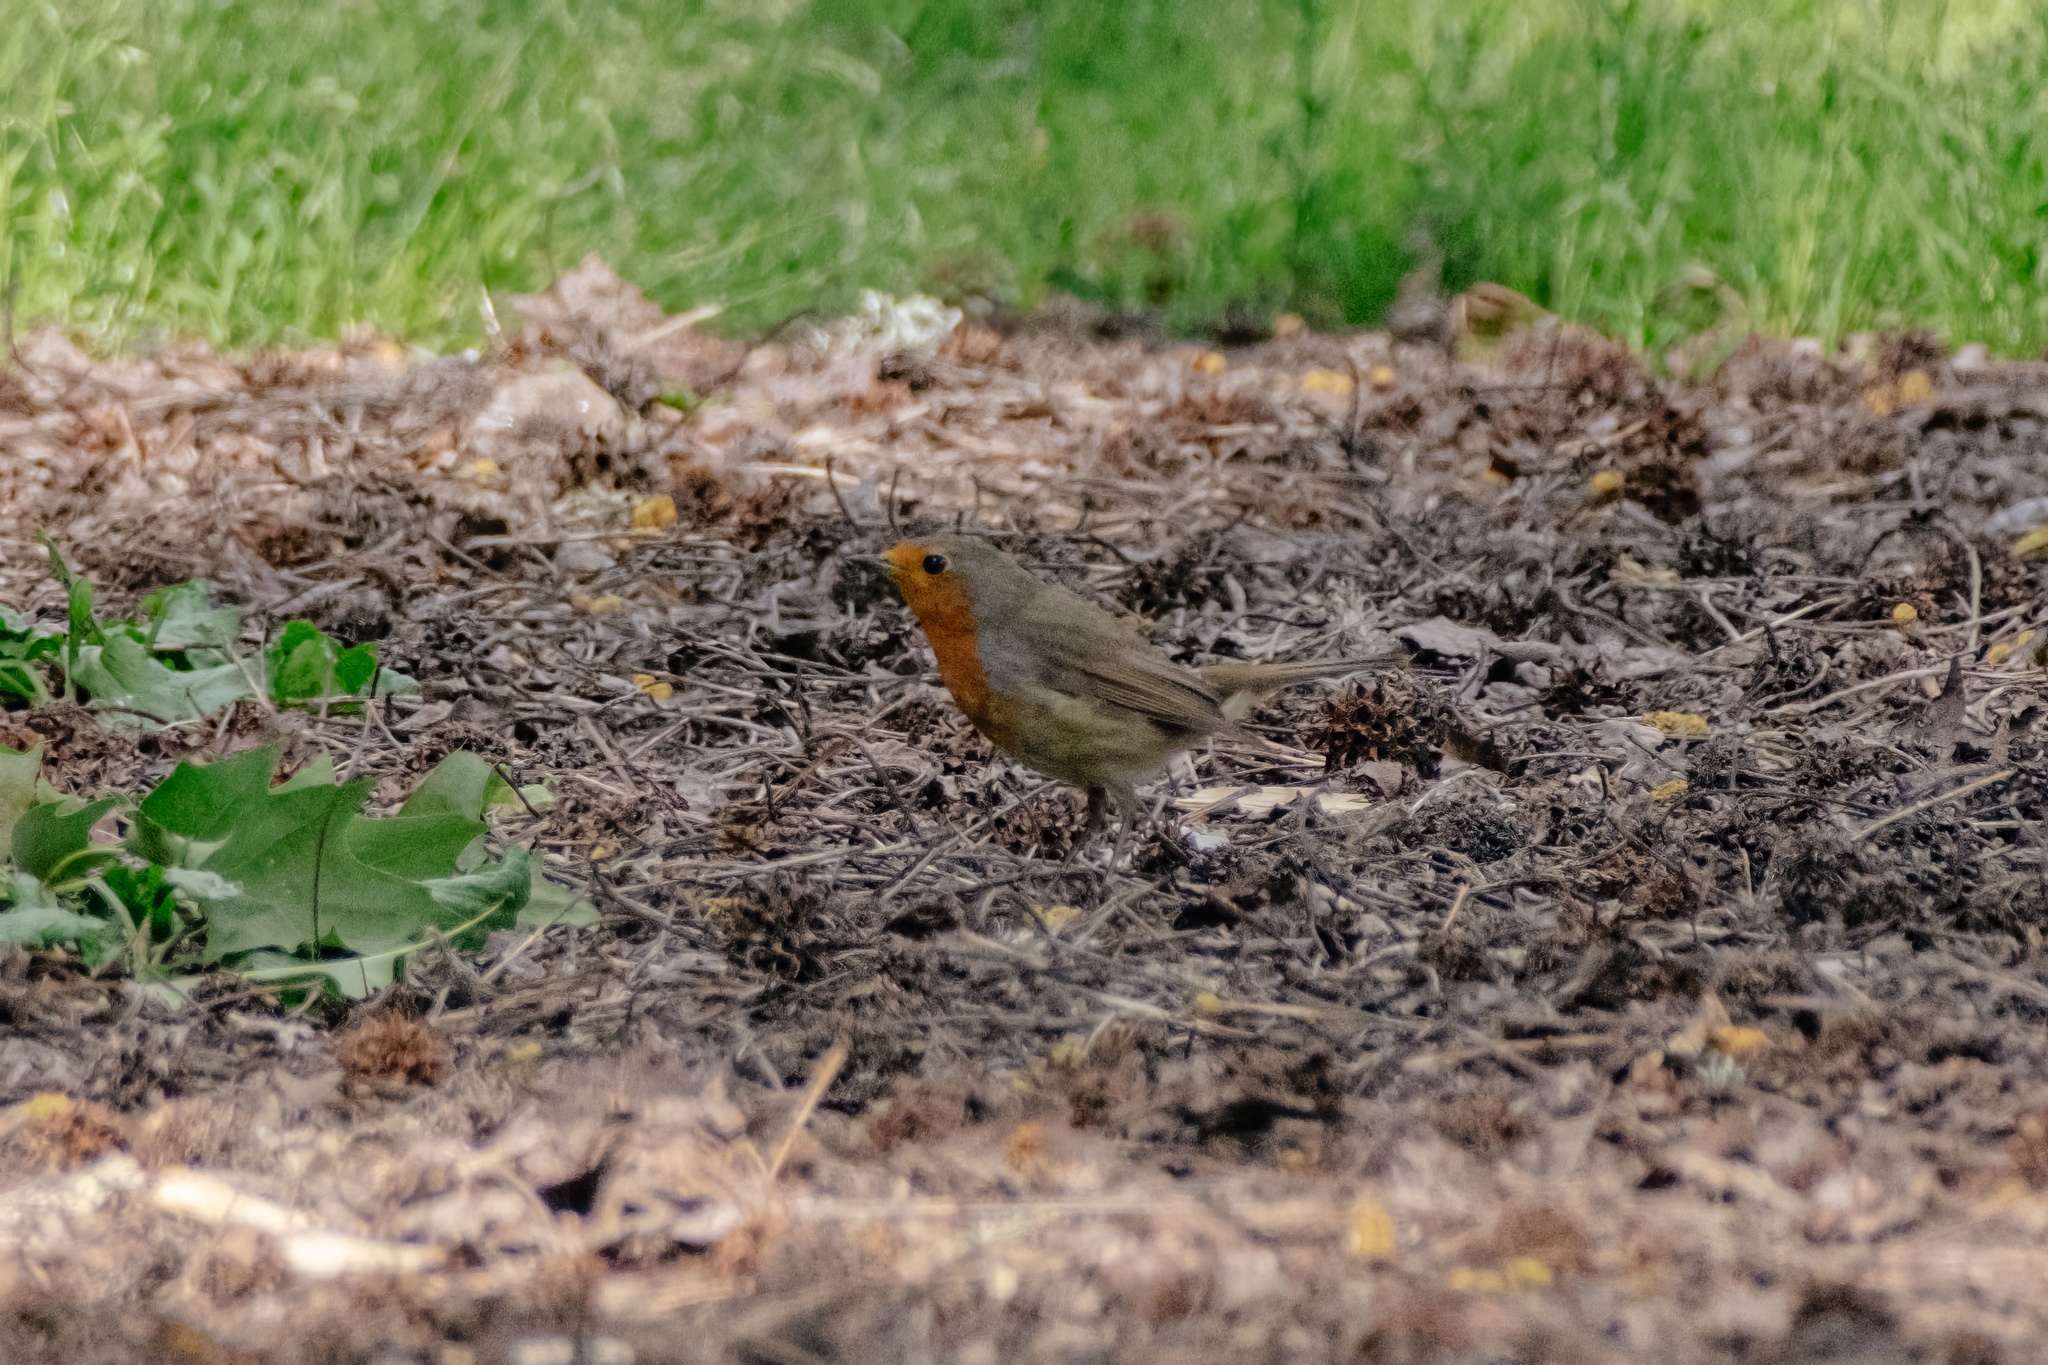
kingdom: Animalia
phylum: Chordata
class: Aves
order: Passeriformes
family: Muscicapidae
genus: Erithacus
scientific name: Erithacus rubecula
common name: European robin
